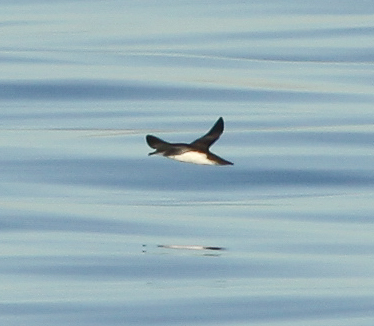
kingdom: Animalia
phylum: Chordata
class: Aves
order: Procellariiformes
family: Procellariidae
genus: Puffinus
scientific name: Puffinus opisthomelas
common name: Black-vented shearwater
